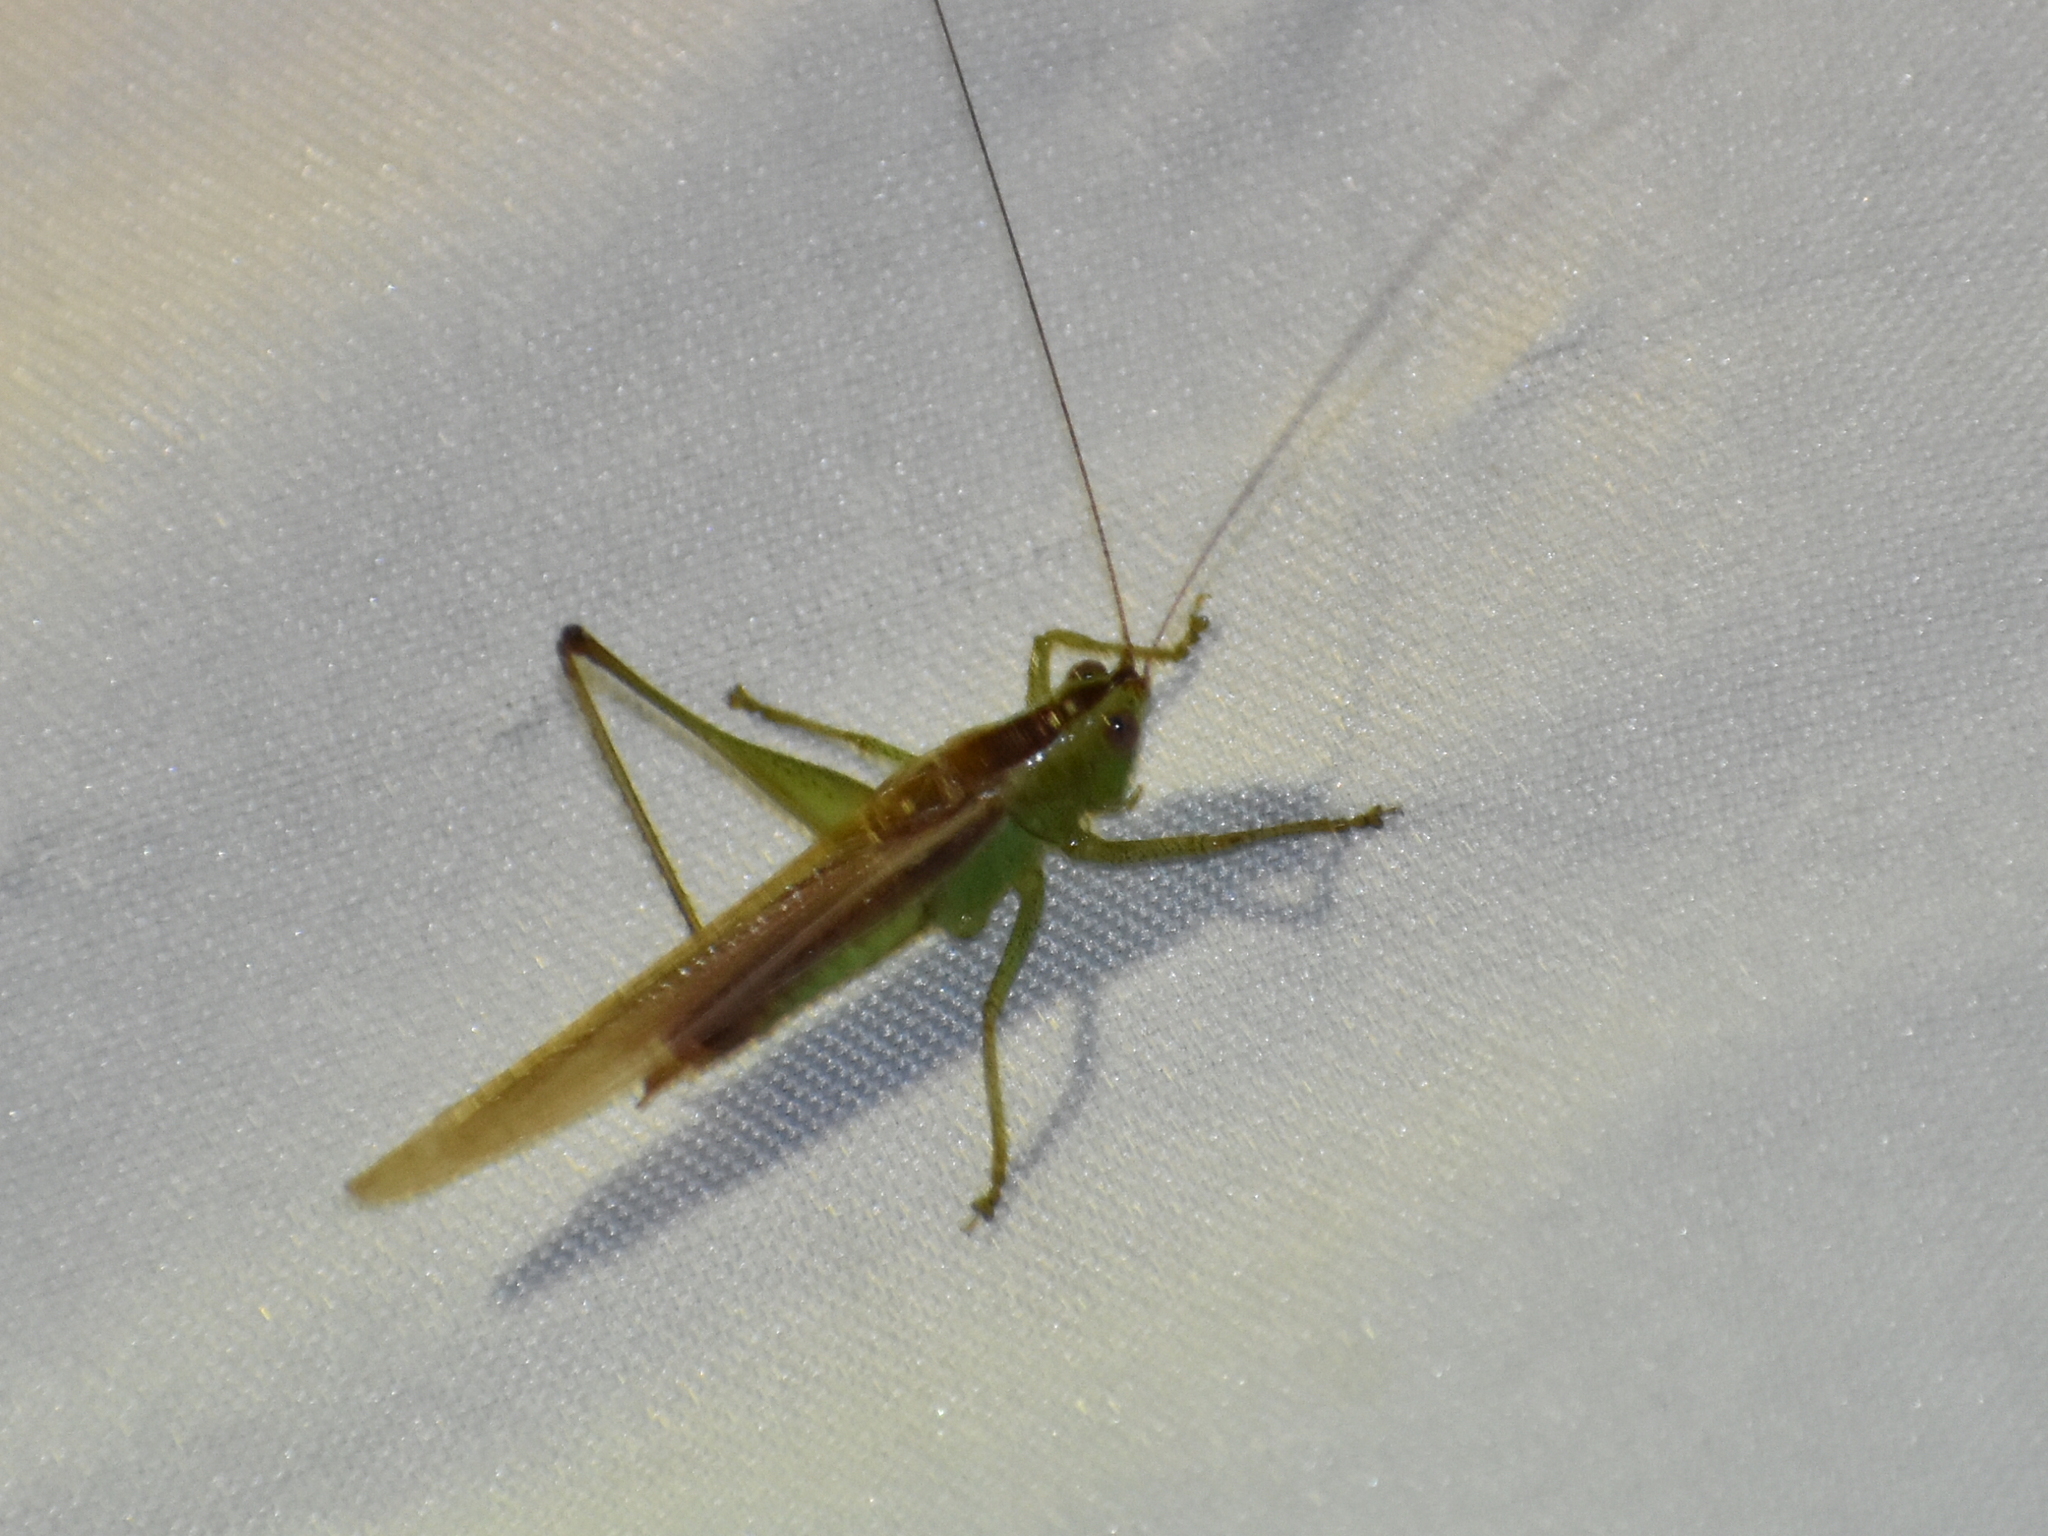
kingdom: Animalia
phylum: Arthropoda
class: Insecta
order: Orthoptera
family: Tettigoniidae
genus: Conocephalus
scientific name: Conocephalus brevipennis
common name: Short-winged meadow katydid
